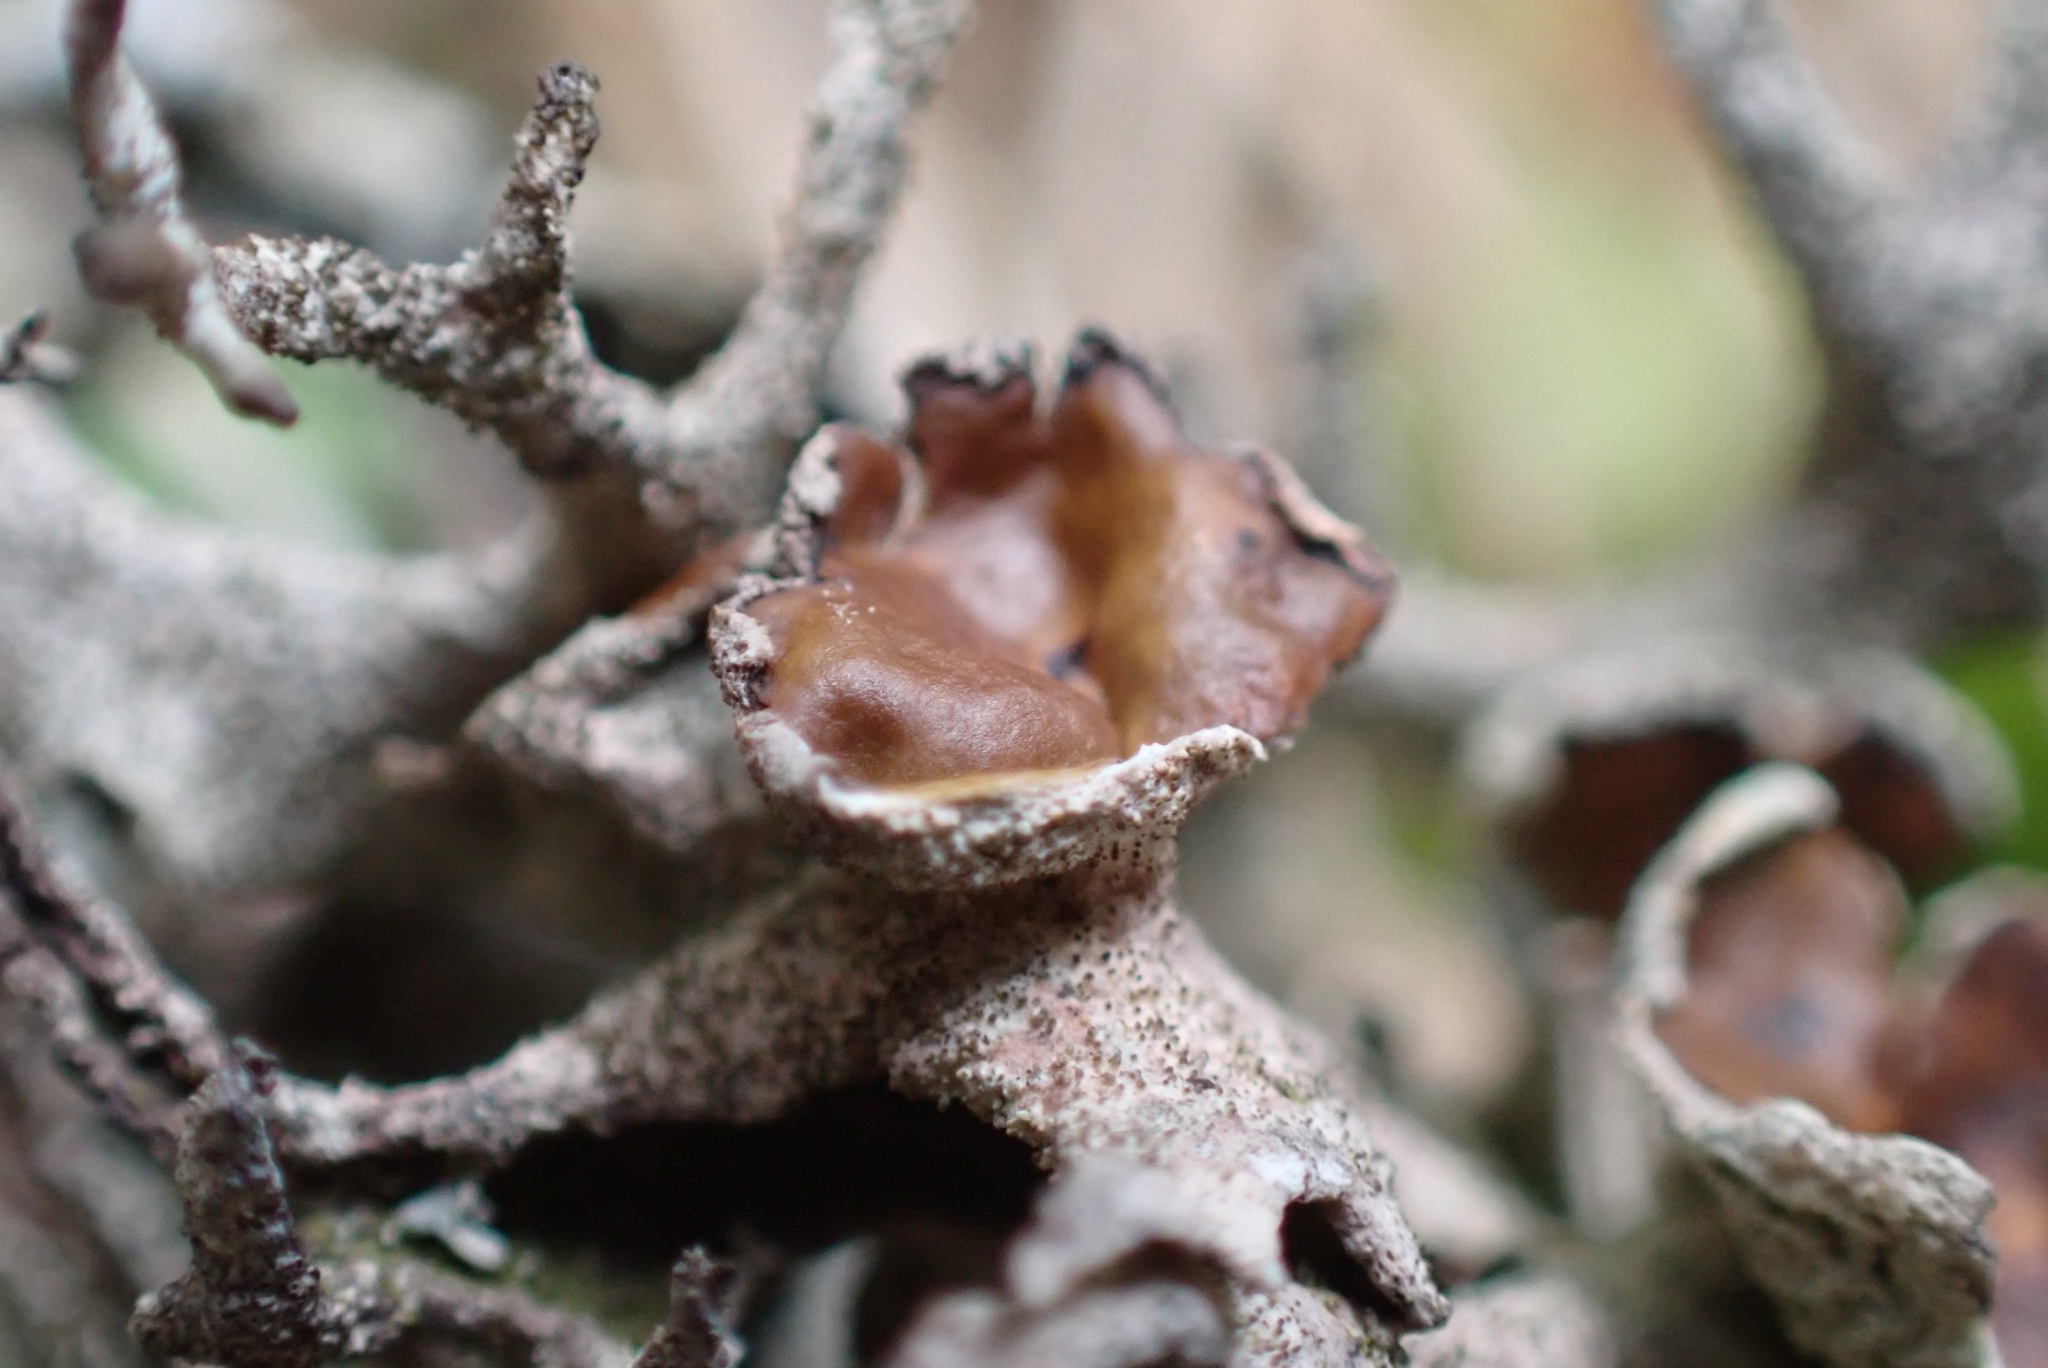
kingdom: Fungi
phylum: Ascomycota
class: Lecanoromycetes
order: Lecanorales
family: Parmeliaceae
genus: Pseudevernia
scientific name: Pseudevernia furfuracea
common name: Tree moss
